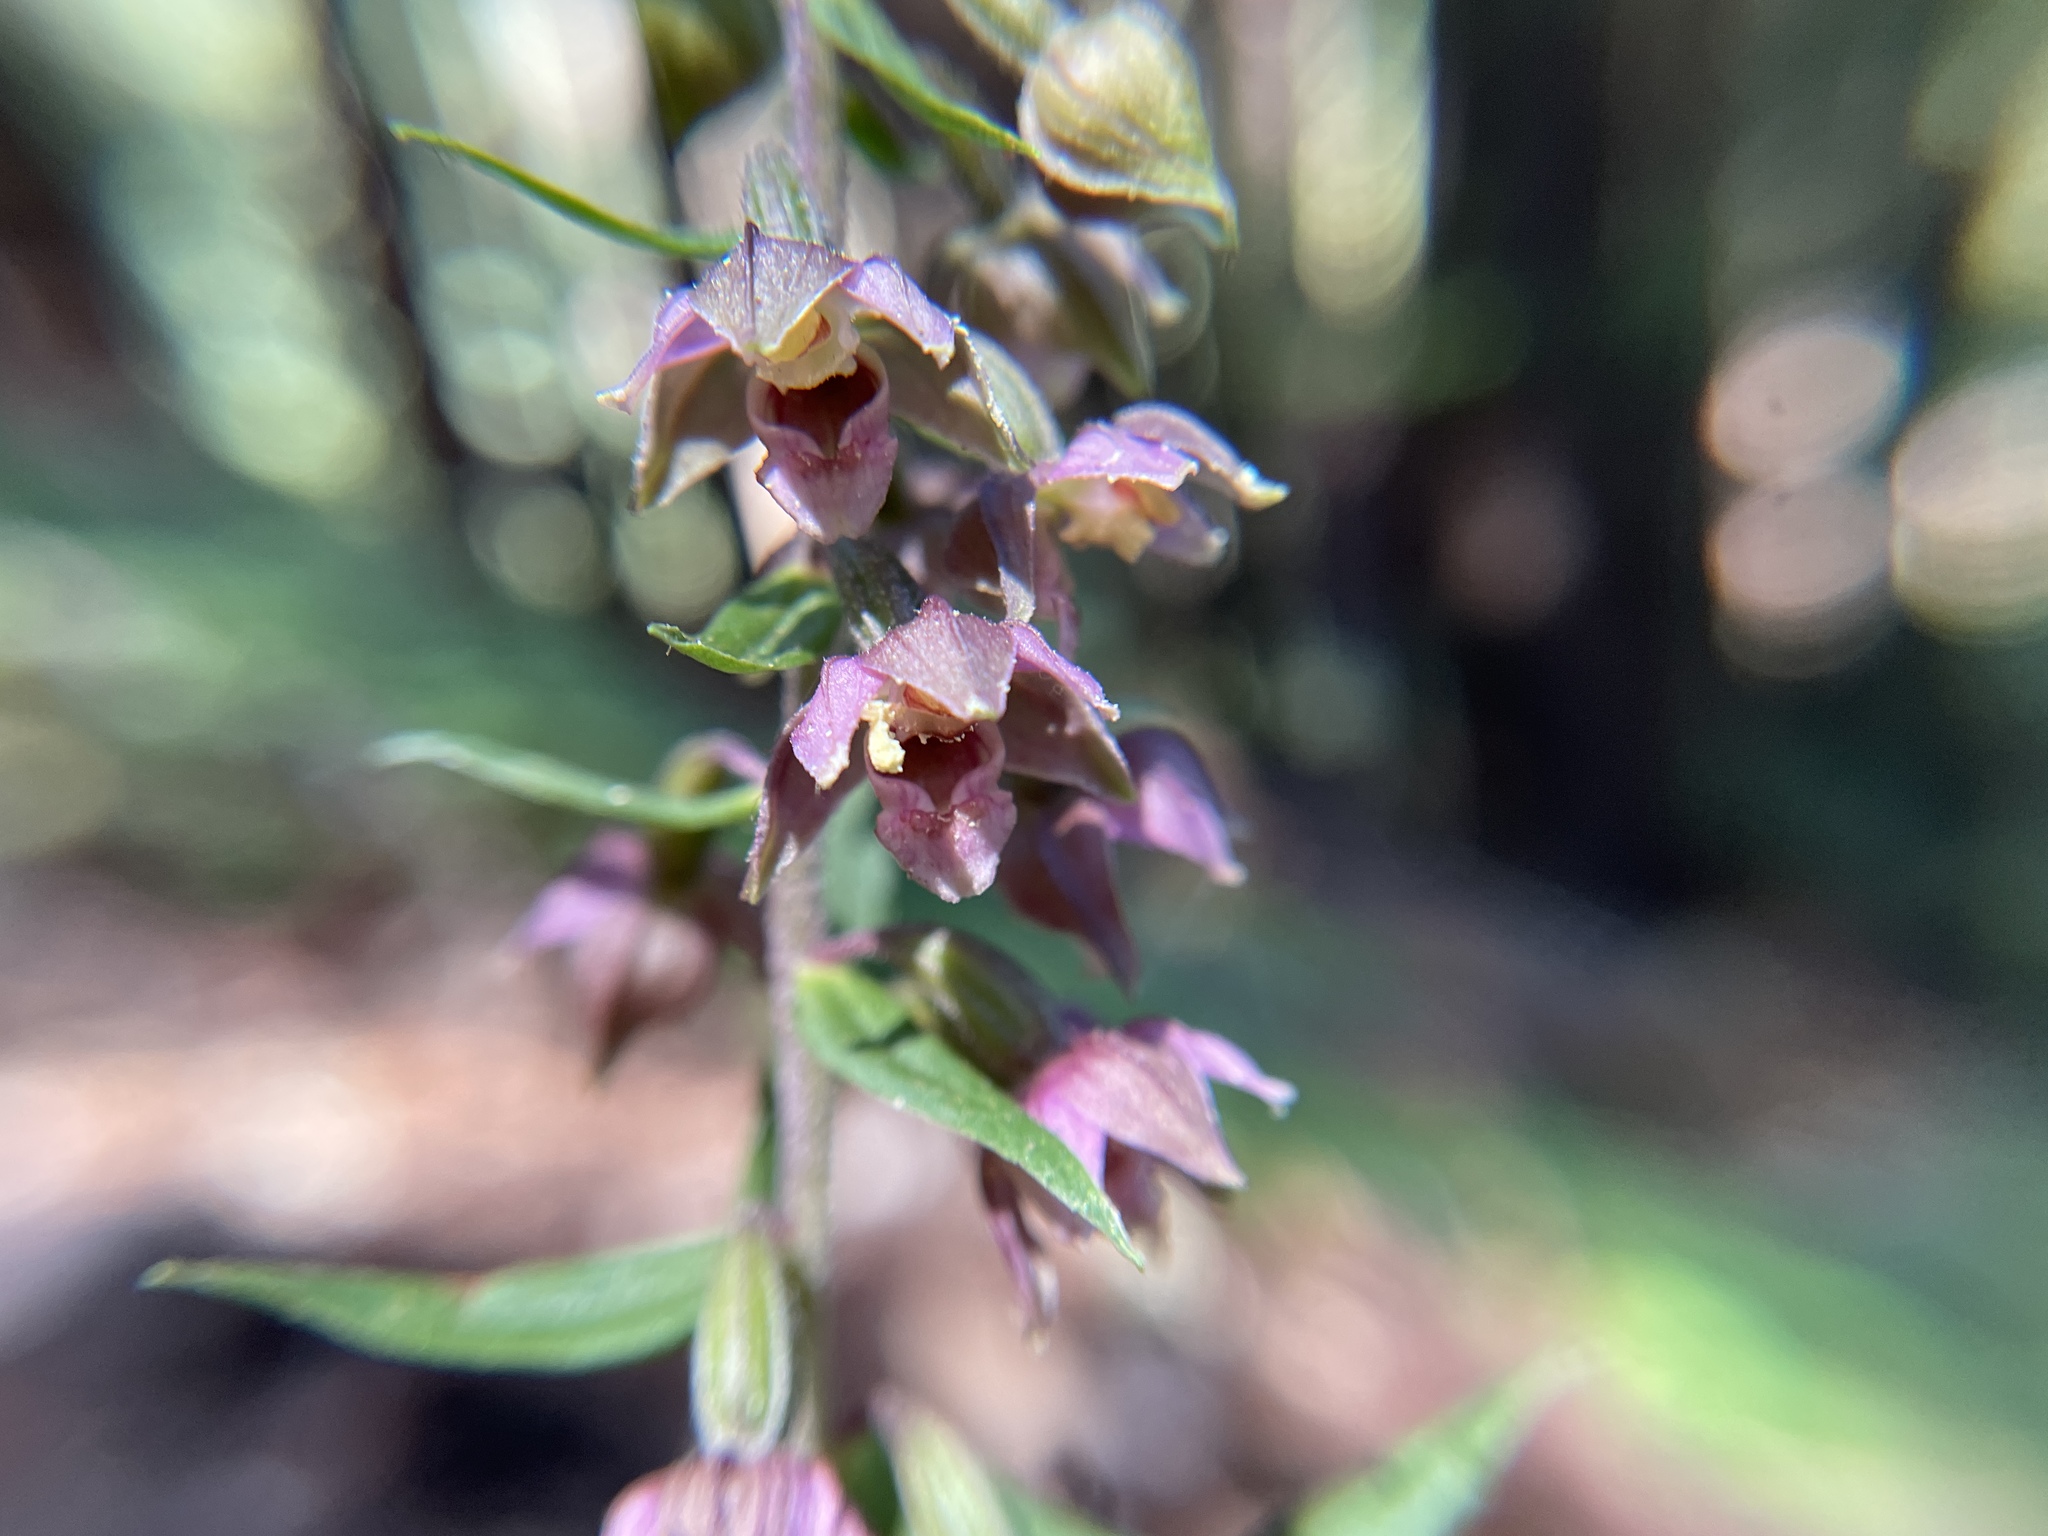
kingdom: Plantae
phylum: Tracheophyta
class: Liliopsida
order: Asparagales
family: Orchidaceae
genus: Epipactis
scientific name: Epipactis helleborine
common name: Broad-leaved helleborine
